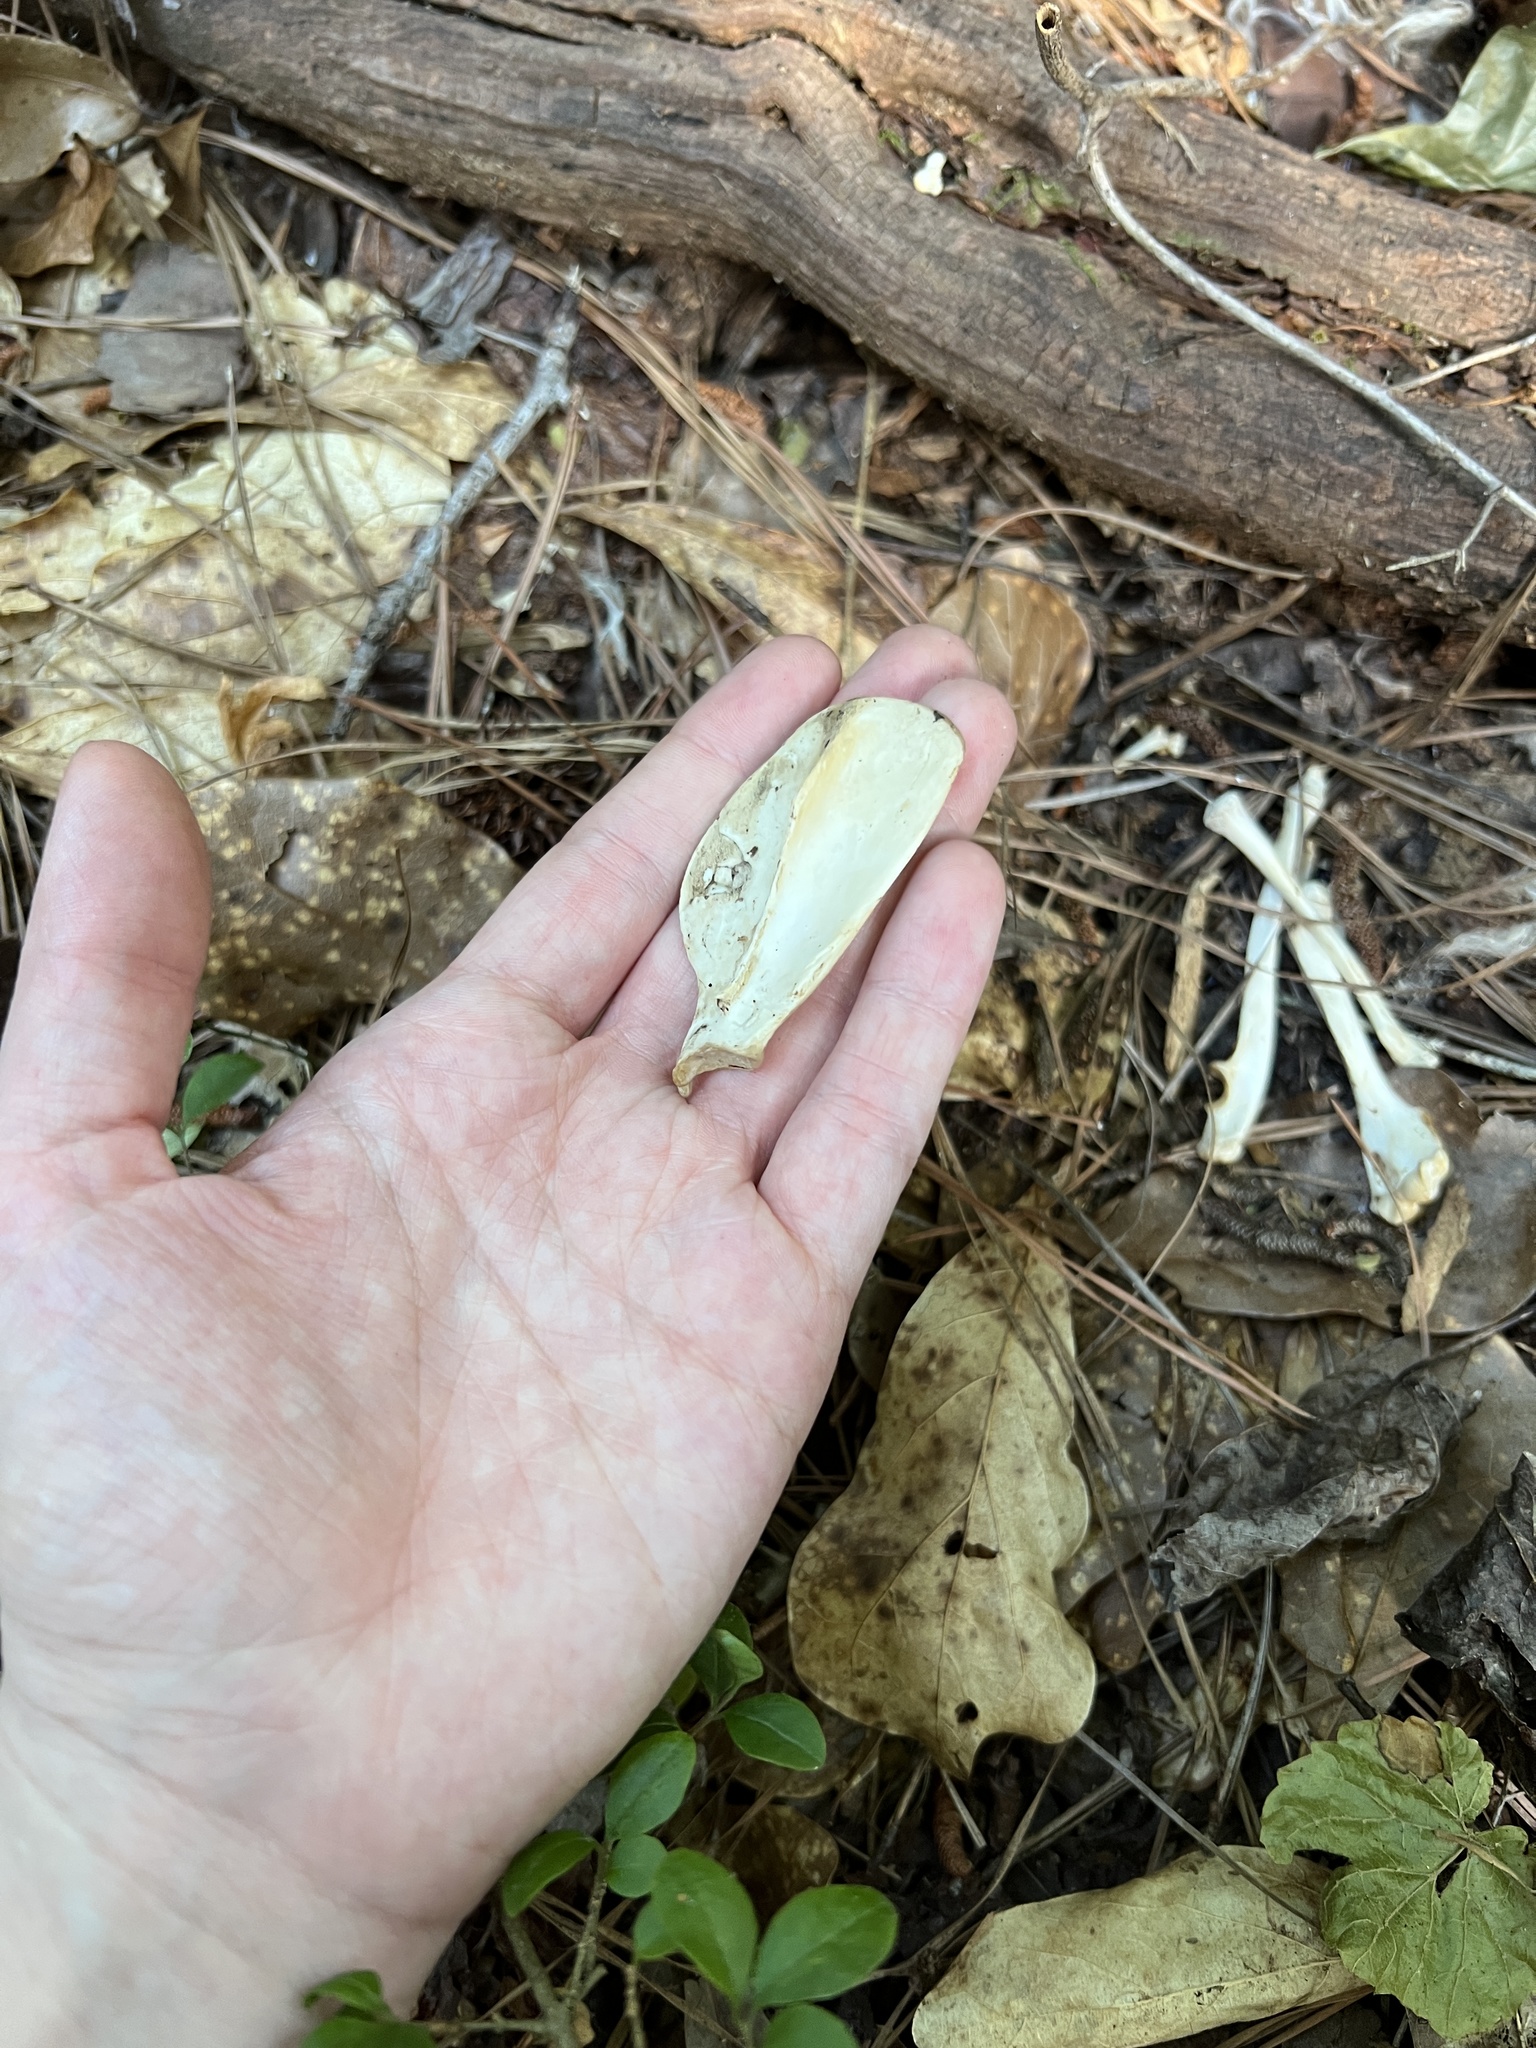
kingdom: Animalia
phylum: Chordata
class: Mammalia
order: Didelphimorphia
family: Didelphidae
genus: Didelphis
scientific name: Didelphis virginiana
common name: Virginia opossum
